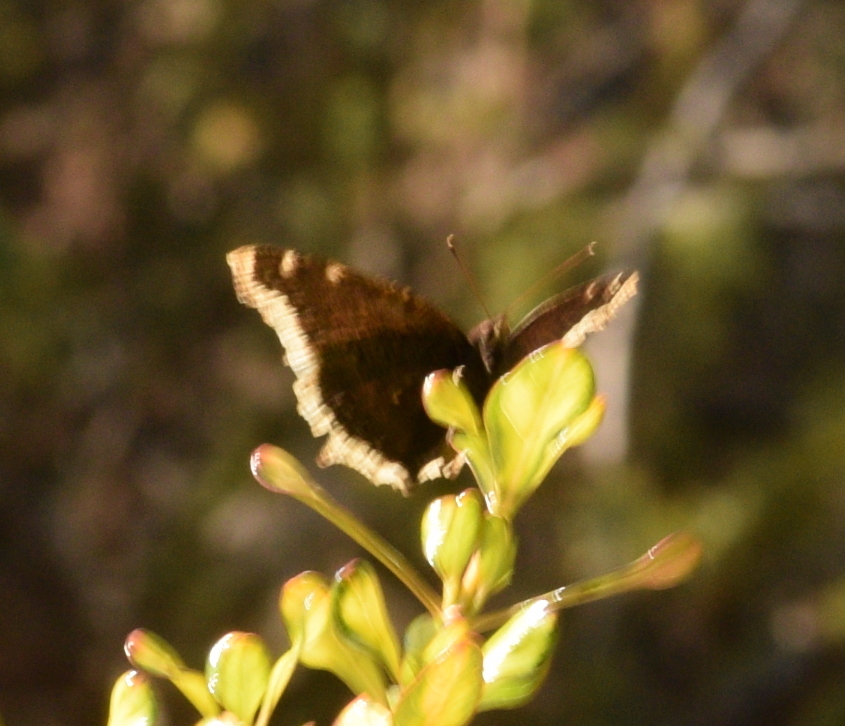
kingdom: Animalia
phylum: Arthropoda
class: Insecta
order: Lepidoptera
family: Nymphalidae
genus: Nymphalis
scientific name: Nymphalis antiopa
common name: Camberwell beauty
